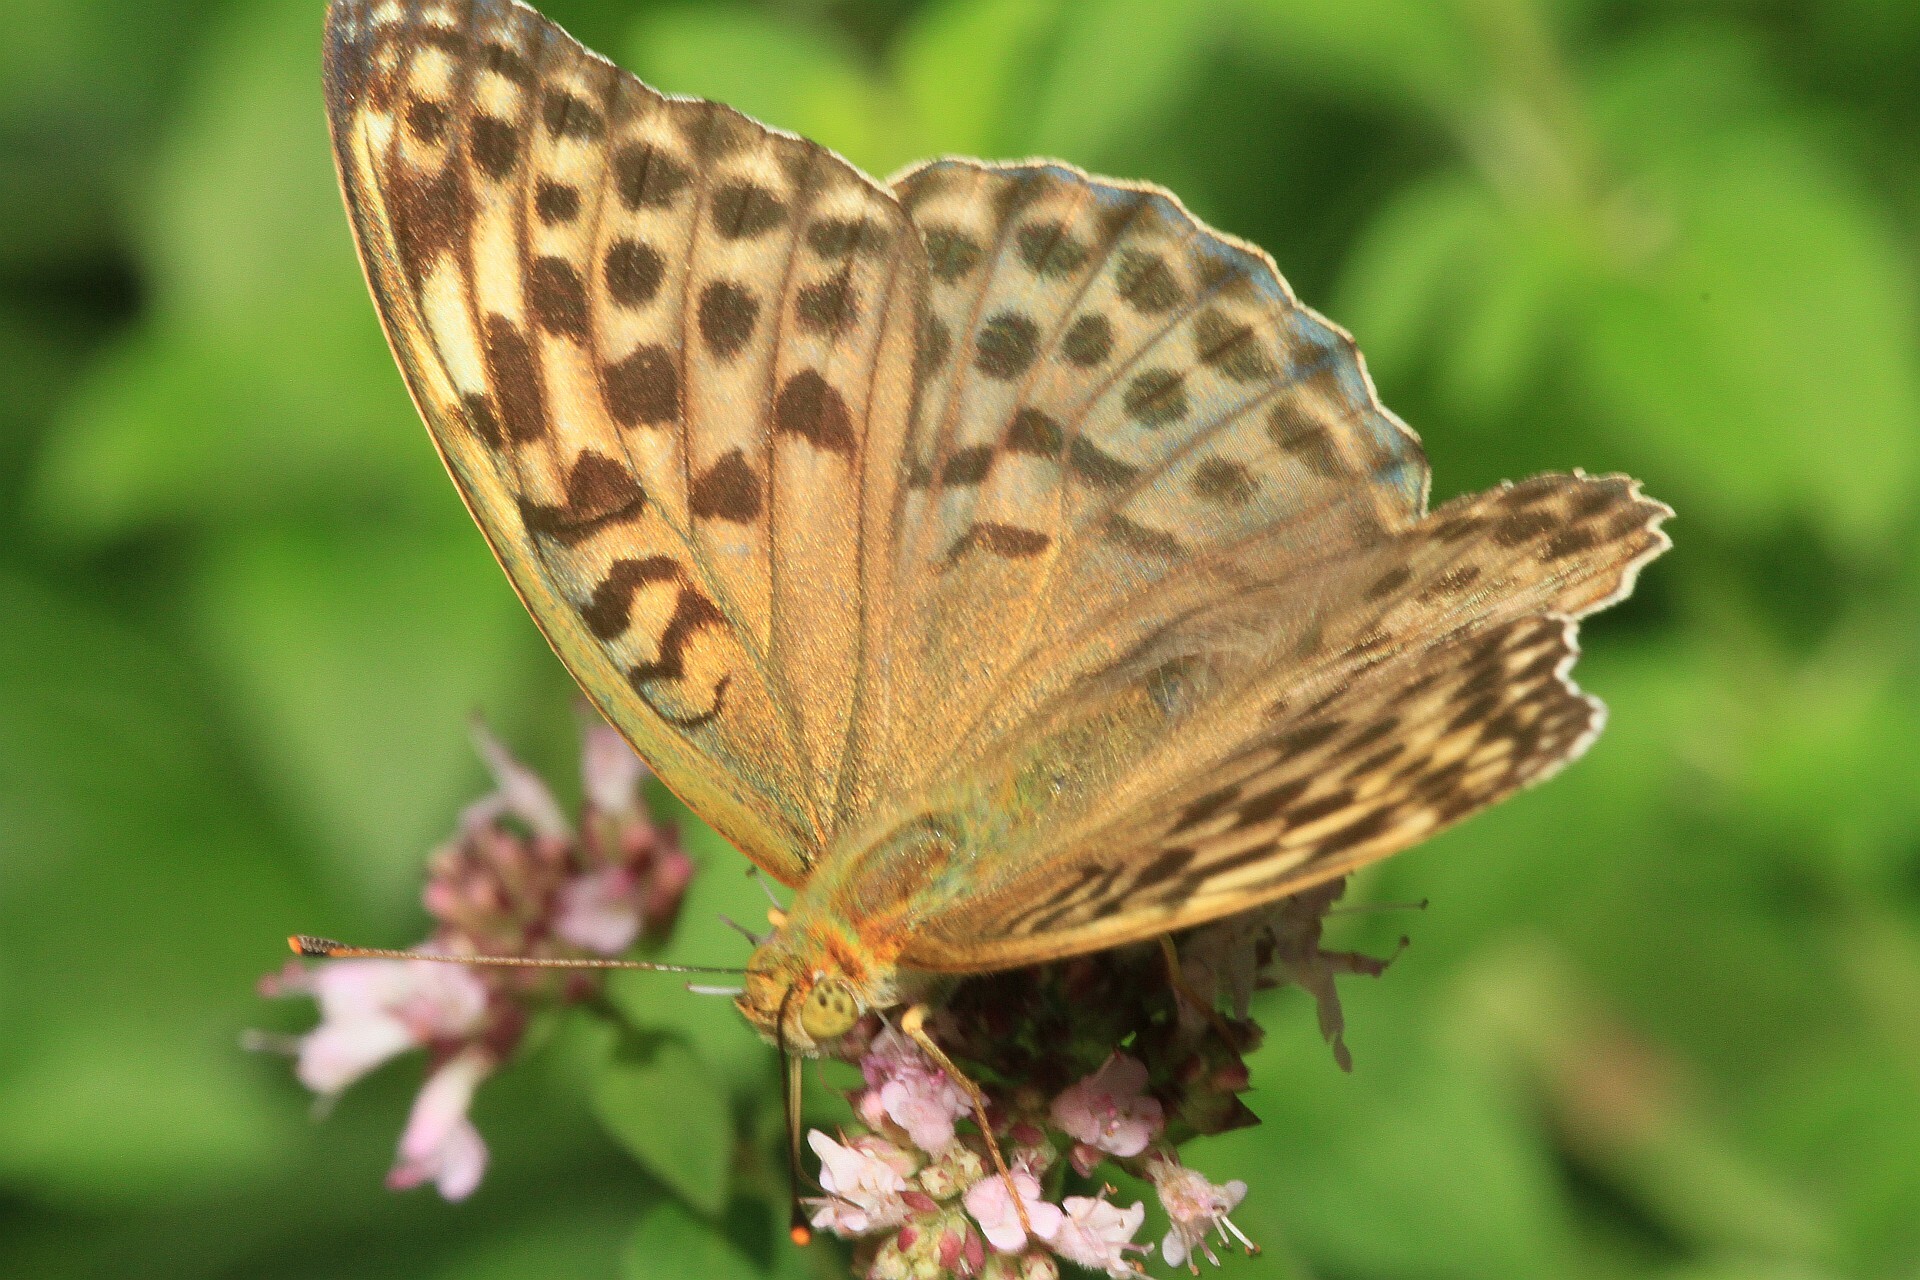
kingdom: Animalia
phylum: Arthropoda
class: Insecta
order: Lepidoptera
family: Nymphalidae
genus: Argynnis
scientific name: Argynnis paphia
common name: Silver-washed fritillary
